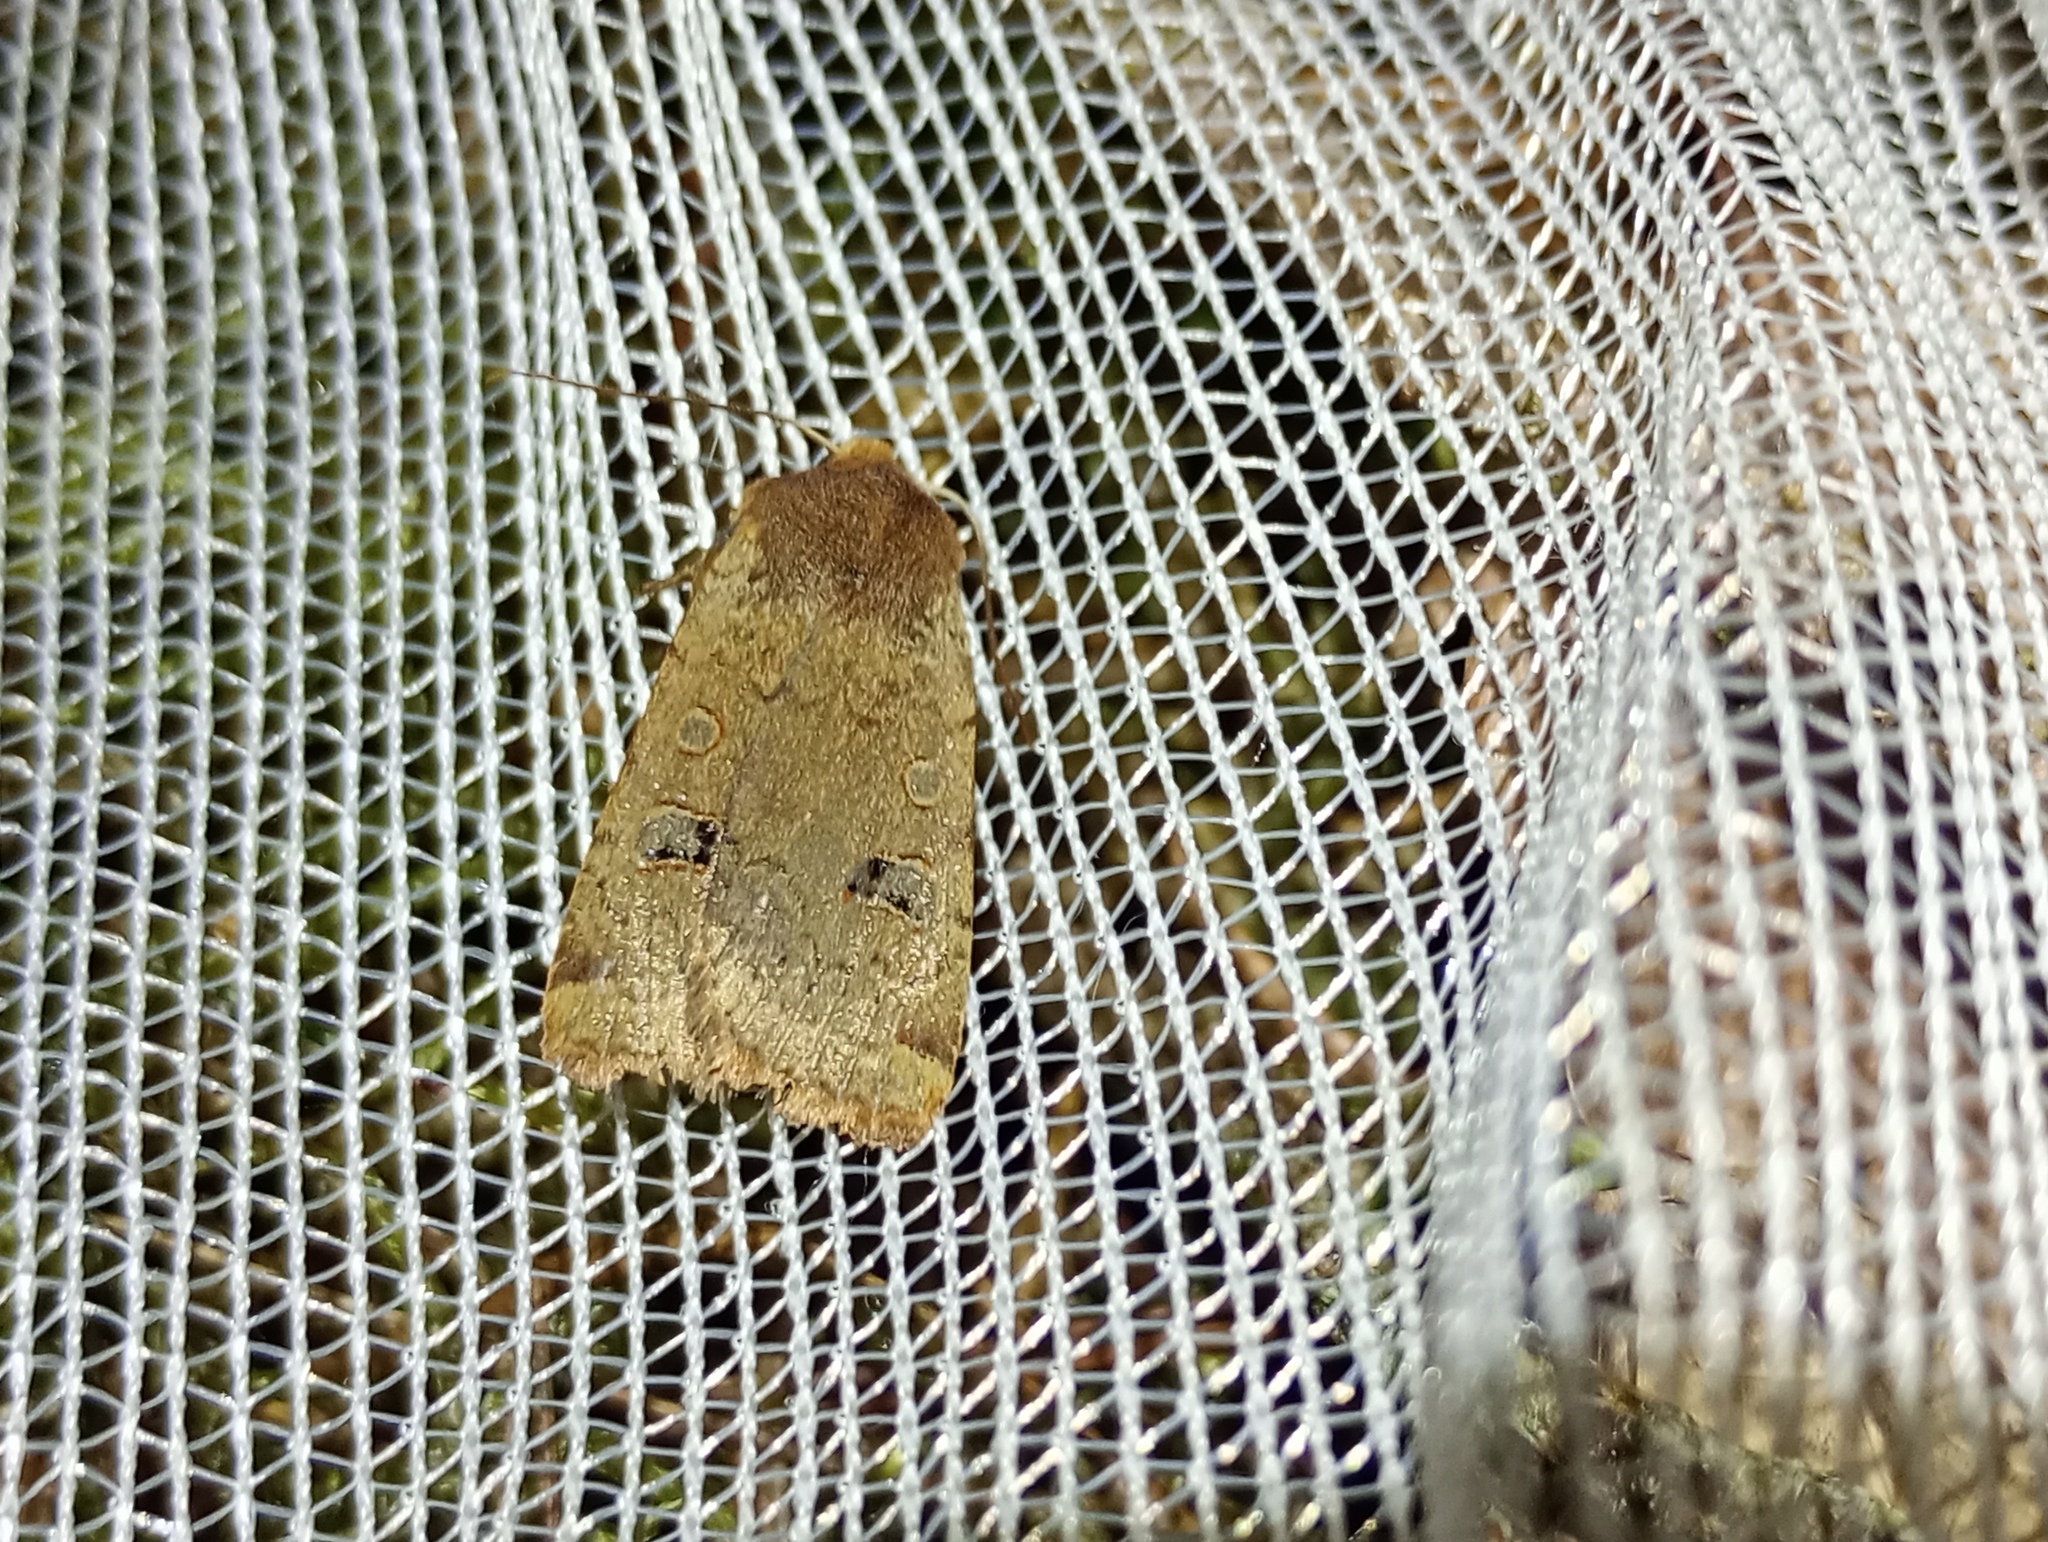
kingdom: Animalia
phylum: Arthropoda
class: Insecta
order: Lepidoptera
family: Noctuidae
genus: Conistra
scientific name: Conistra erythrocephala
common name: Red-headed chestnut
